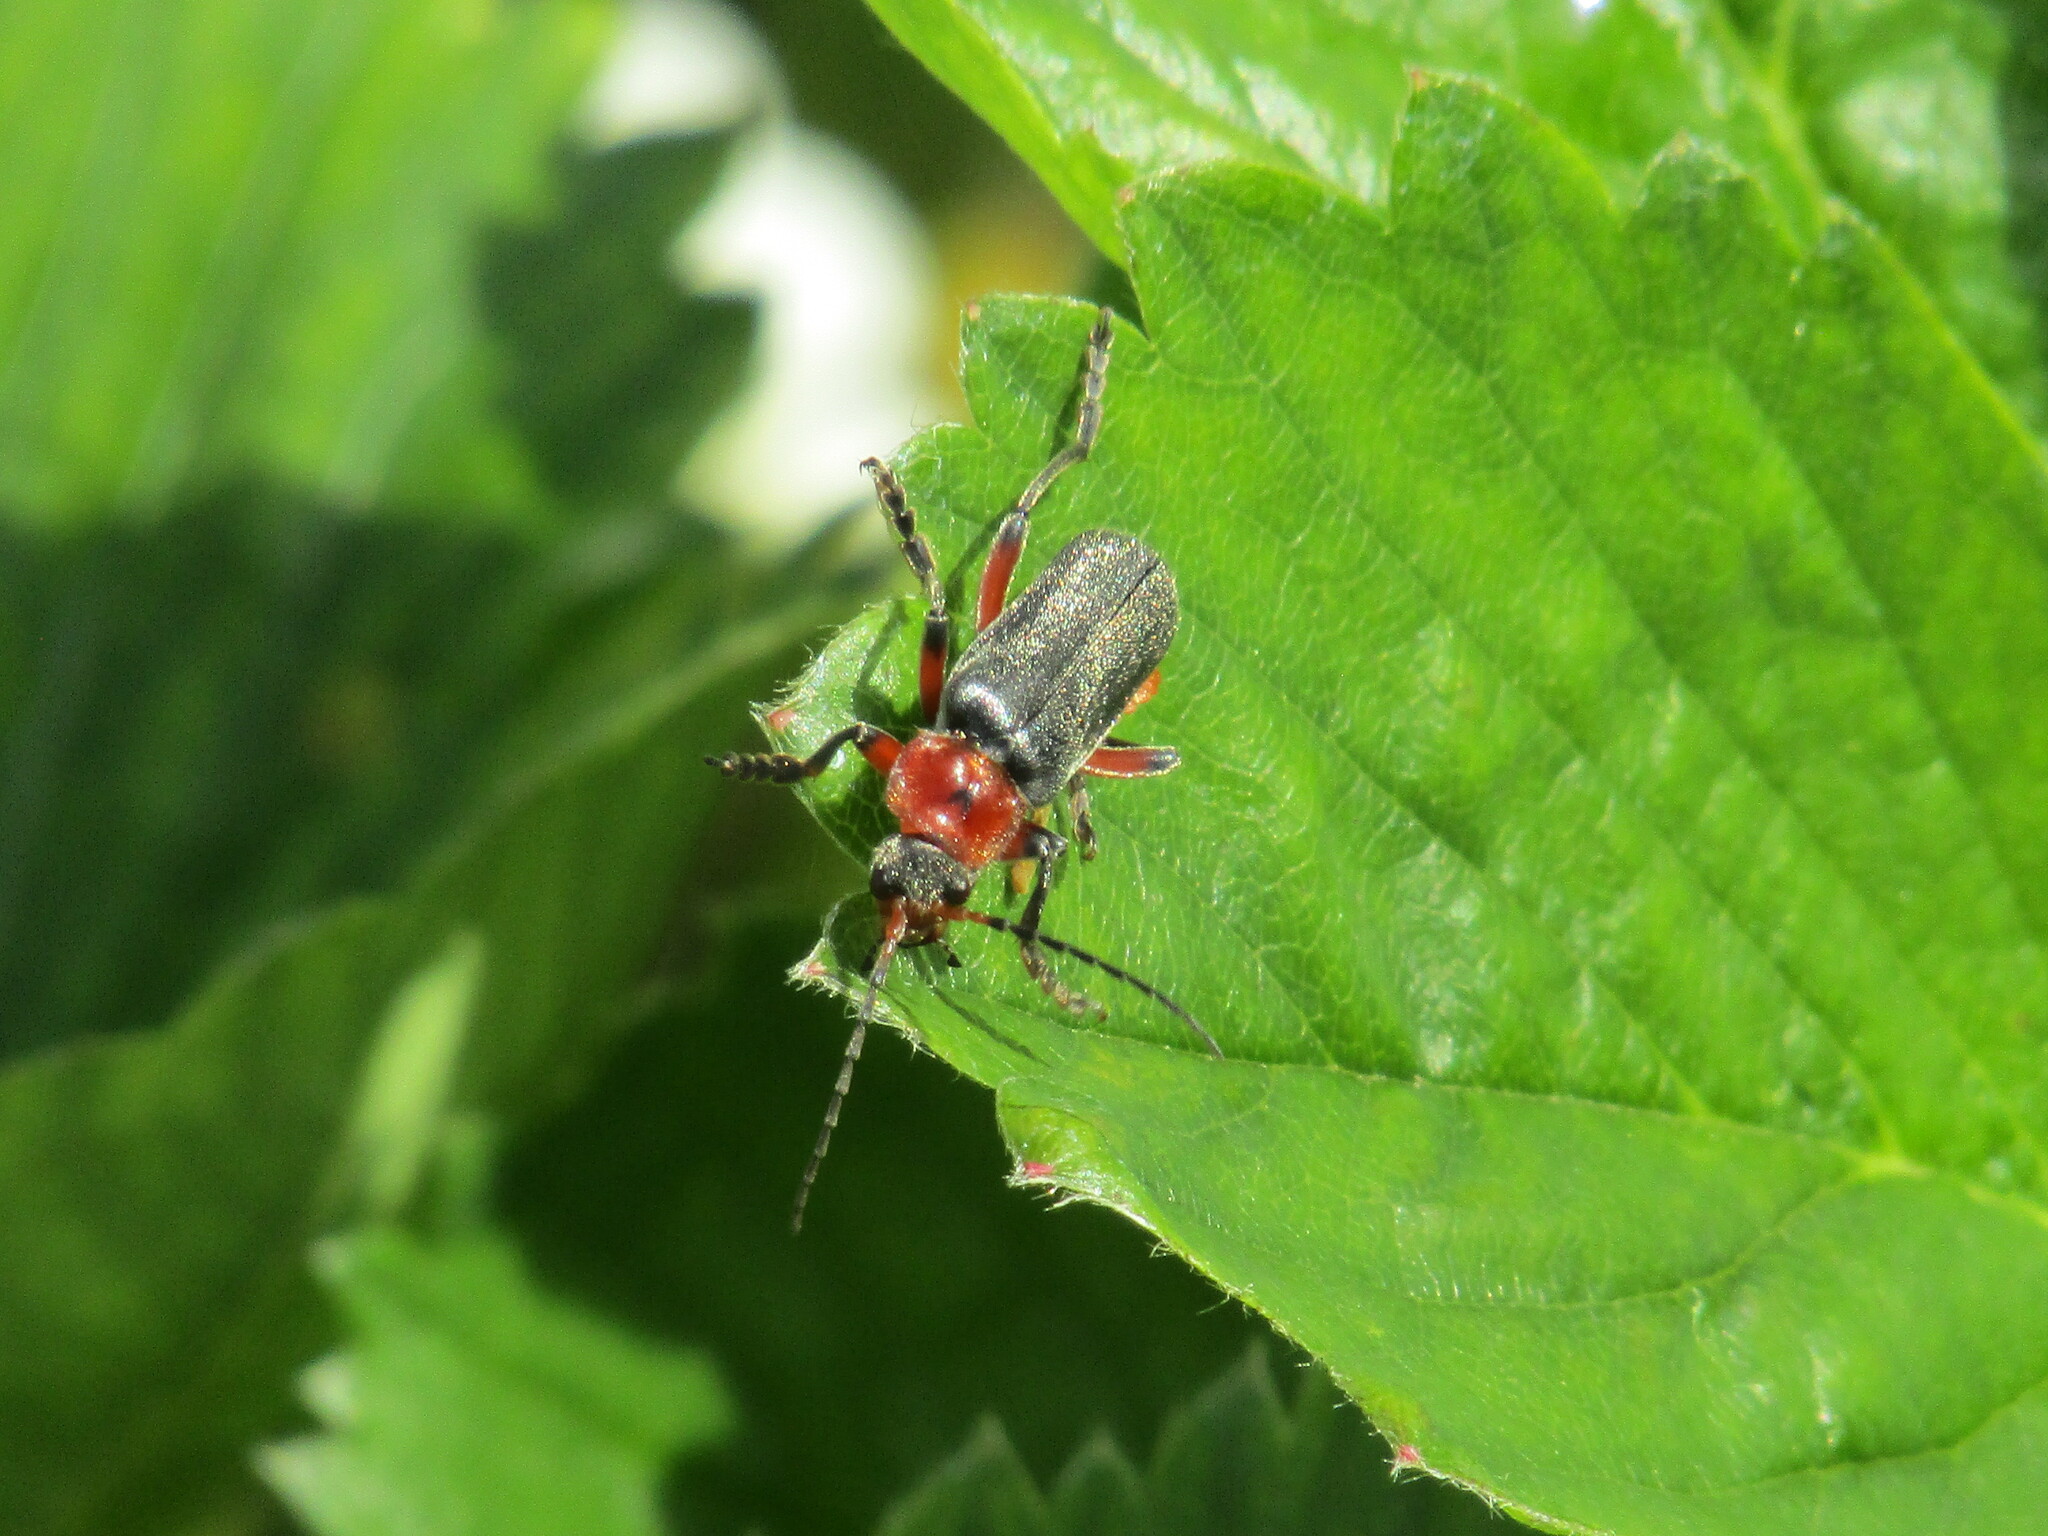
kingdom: Animalia
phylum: Arthropoda
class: Insecta
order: Coleoptera
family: Cantharidae
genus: Cantharis
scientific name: Cantharis rustica
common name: Soldier beetle
